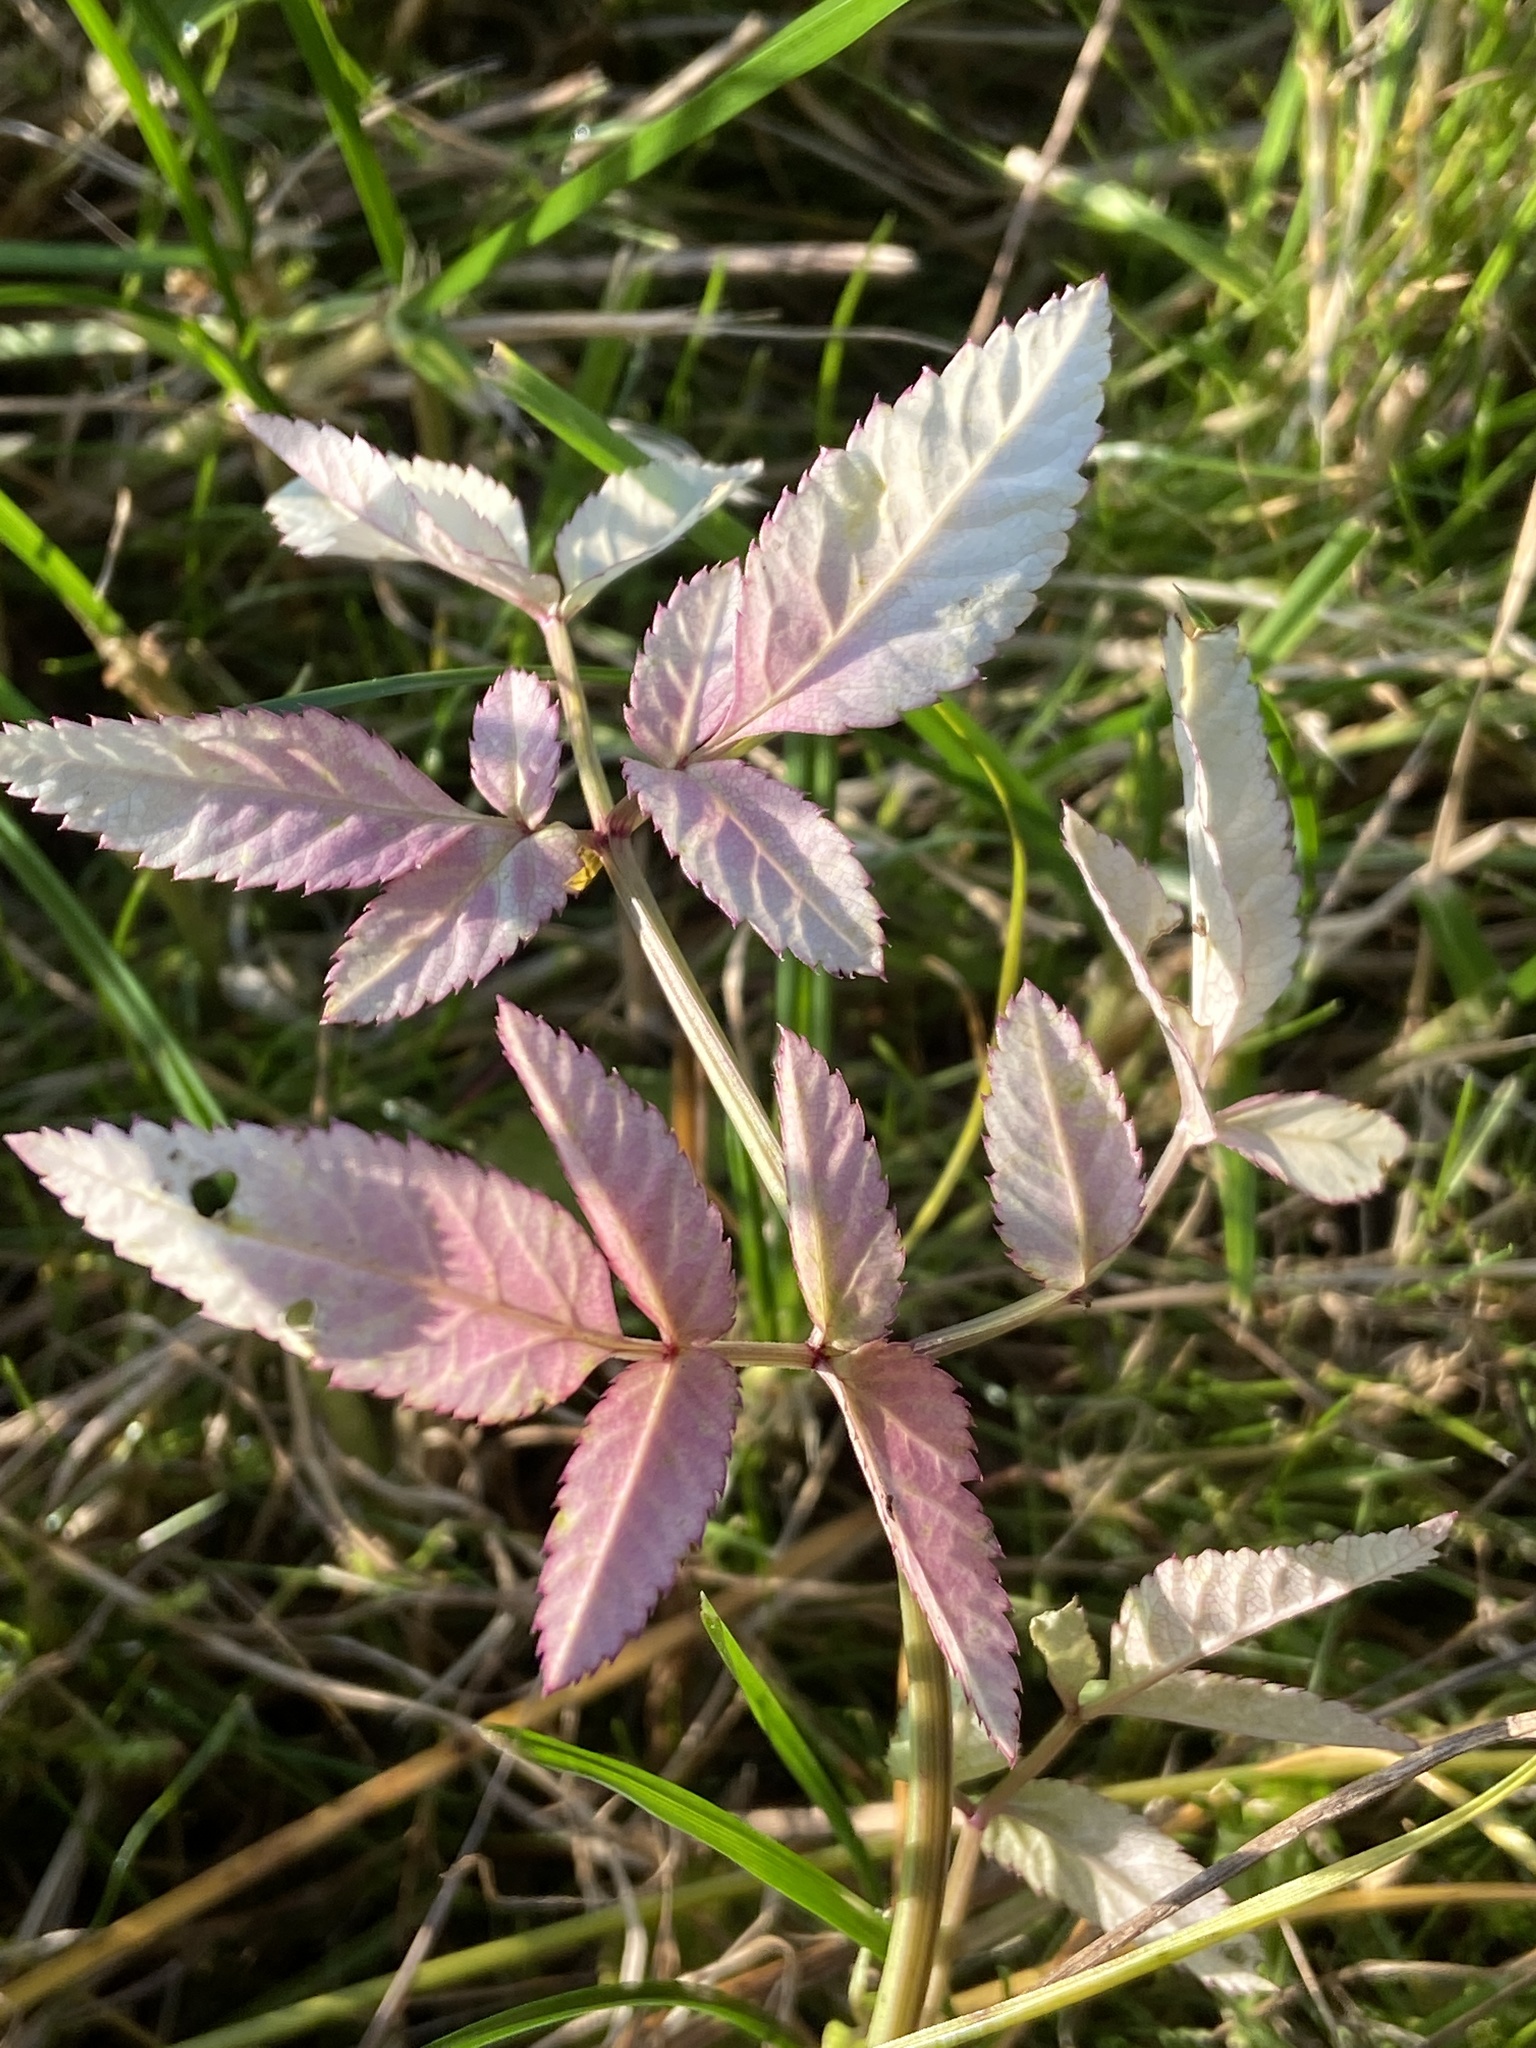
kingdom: Plantae
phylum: Tracheophyta
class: Magnoliopsida
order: Apiales
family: Apiaceae
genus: Angelica
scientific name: Angelica sylvestris
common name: Wild angelica
